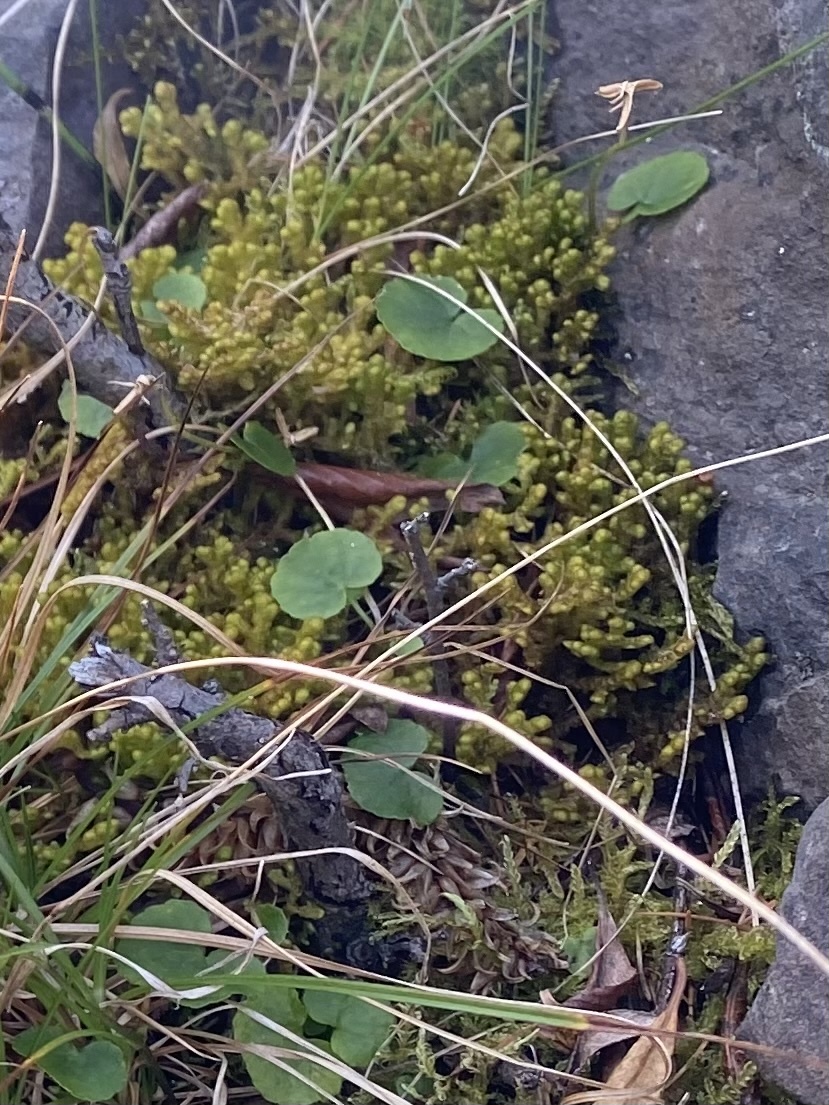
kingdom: Plantae
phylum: Tracheophyta
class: Magnoliopsida
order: Malpighiales
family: Violaceae
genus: Viola
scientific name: Viola biflora
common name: Alpine yellow violet
